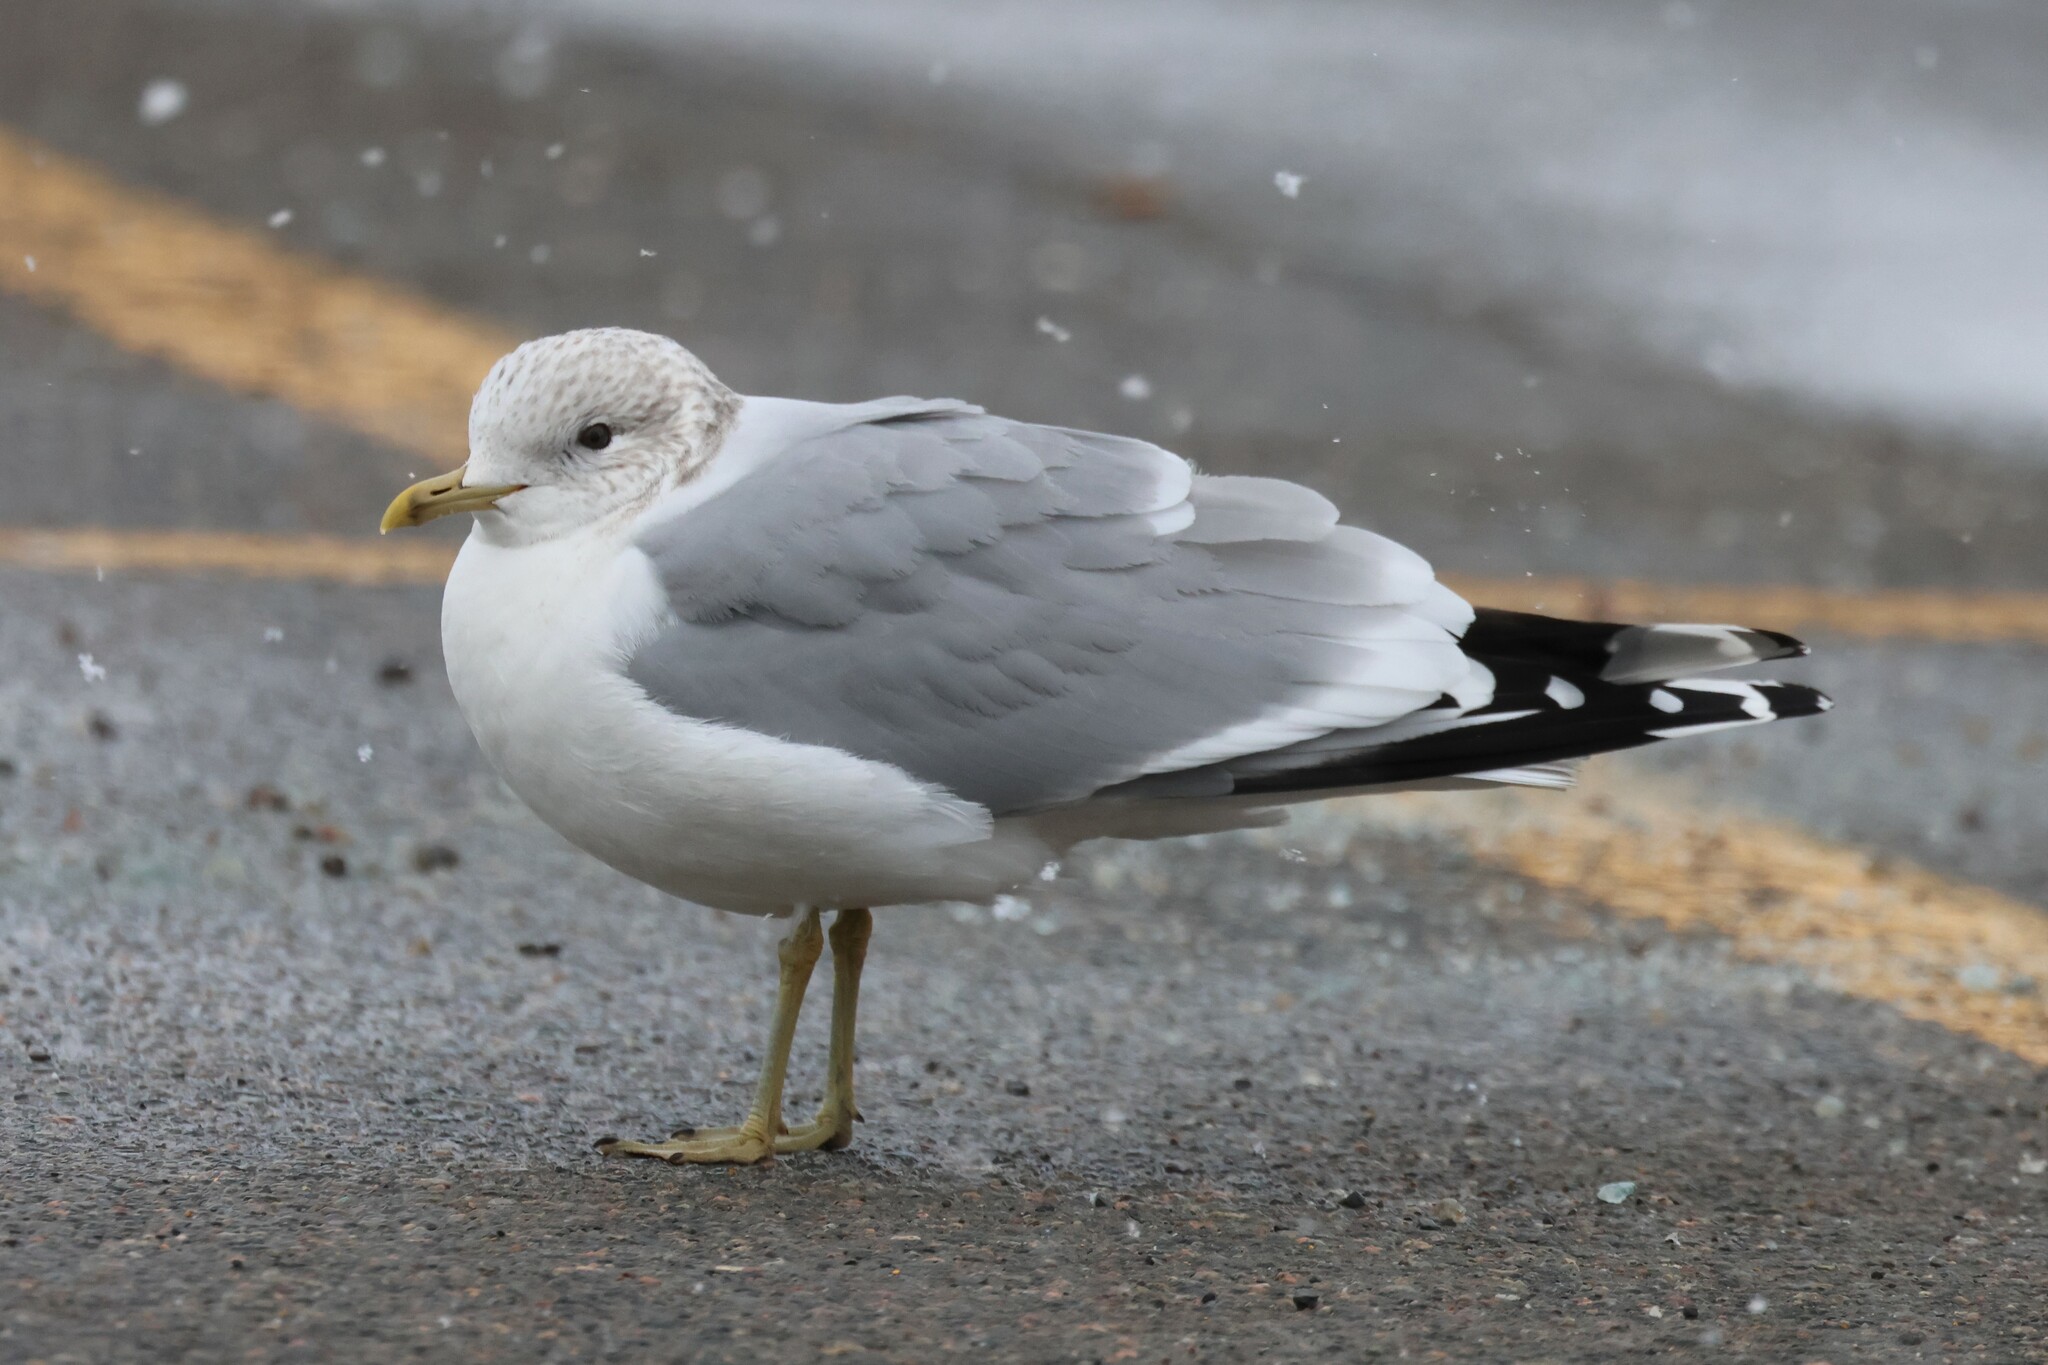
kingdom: Animalia
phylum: Chordata
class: Aves
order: Charadriiformes
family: Laridae
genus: Larus
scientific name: Larus canus
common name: Mew gull
